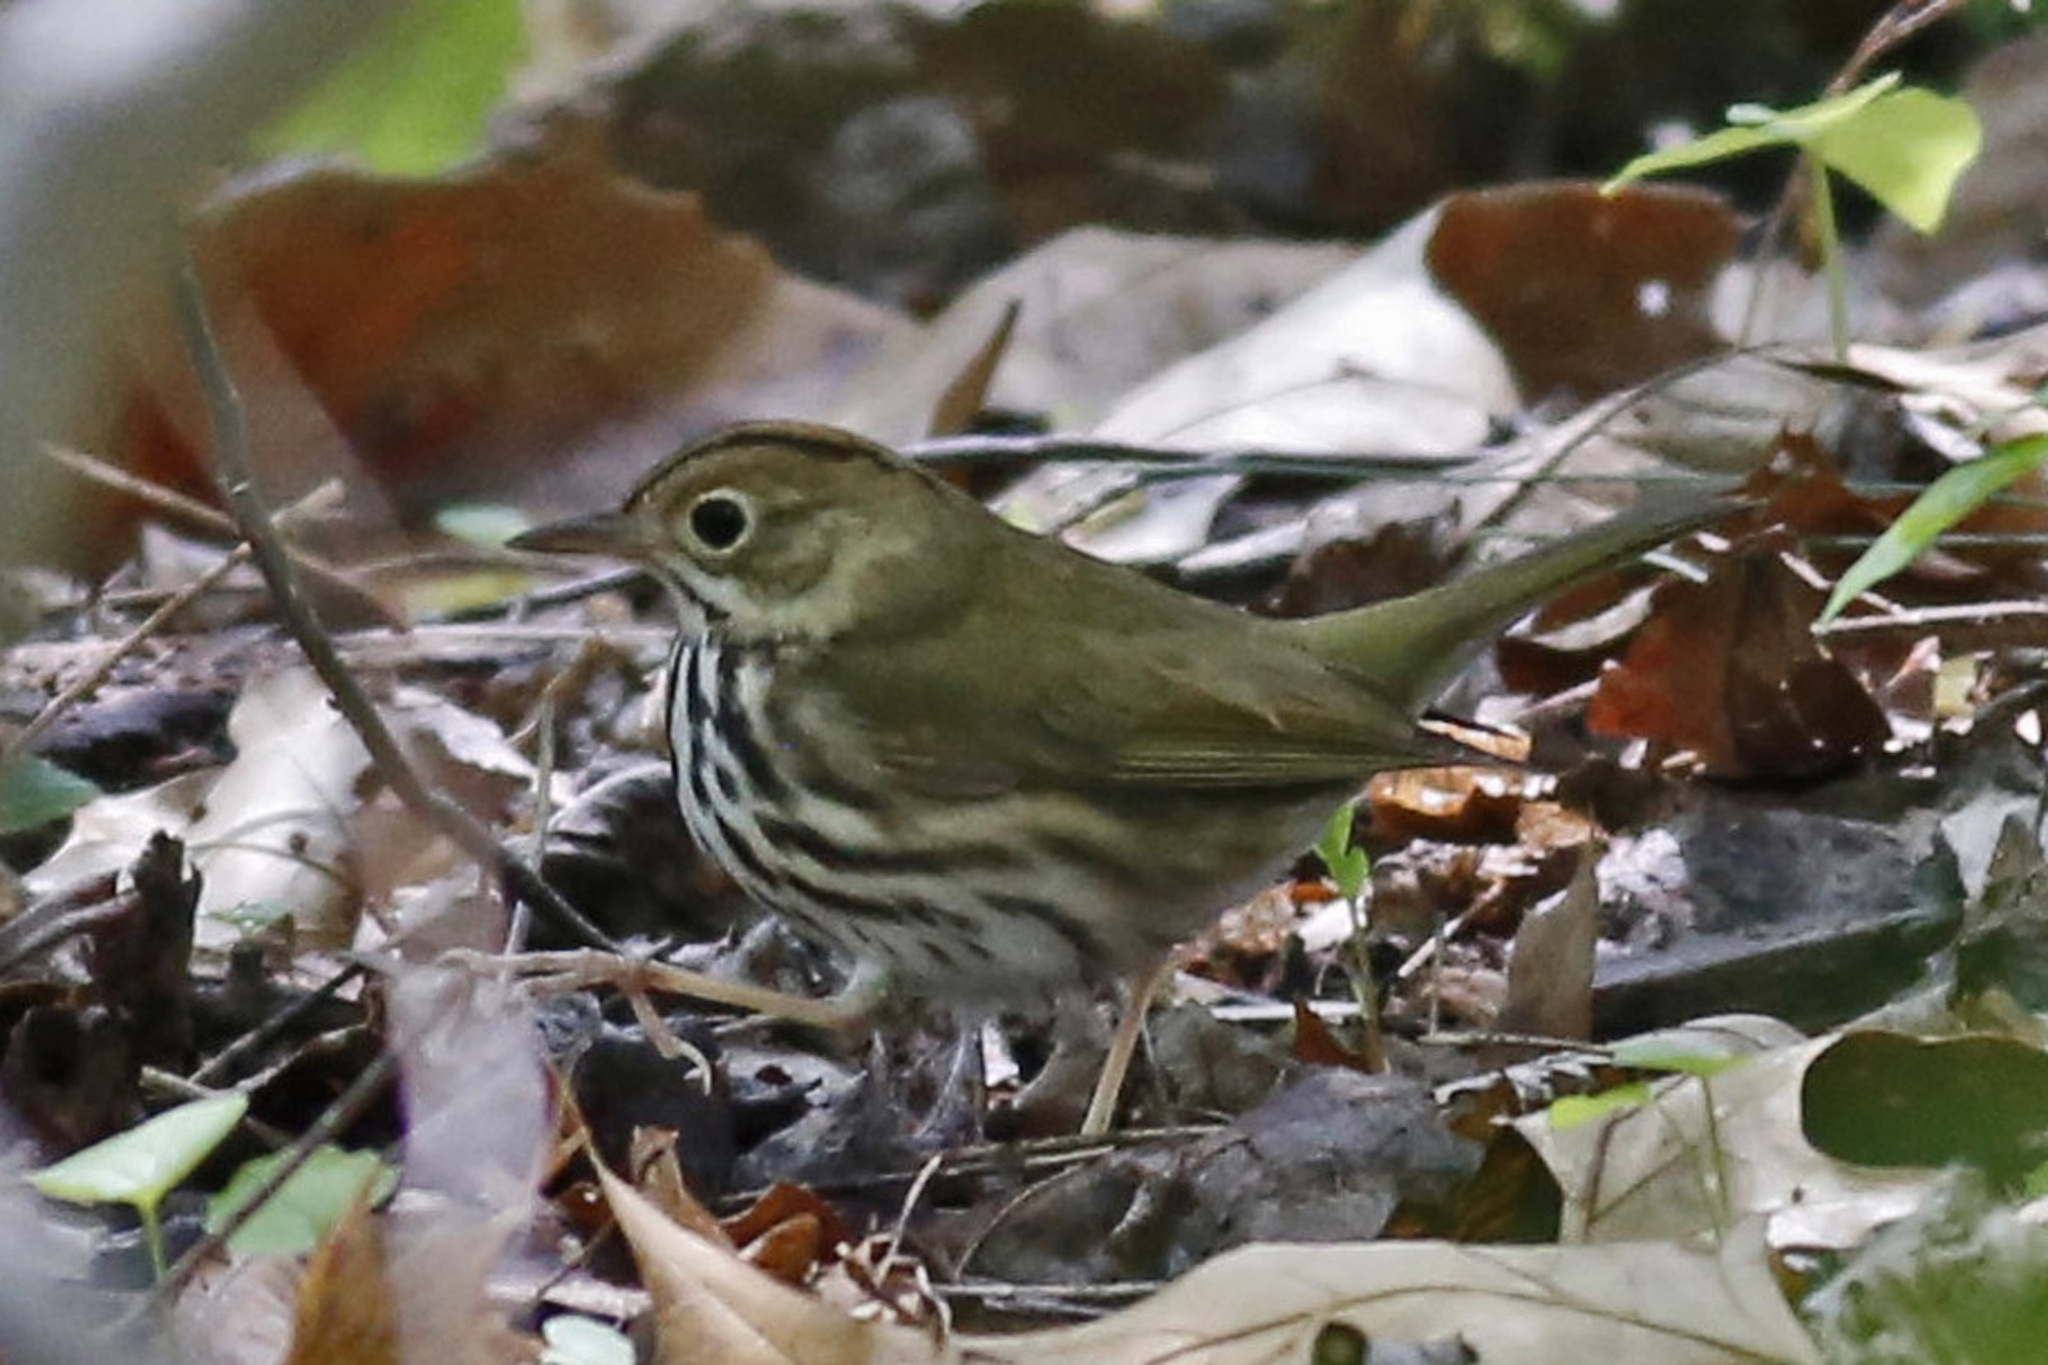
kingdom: Animalia
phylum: Chordata
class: Aves
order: Passeriformes
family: Parulidae
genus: Seiurus
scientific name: Seiurus aurocapilla
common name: Ovenbird
